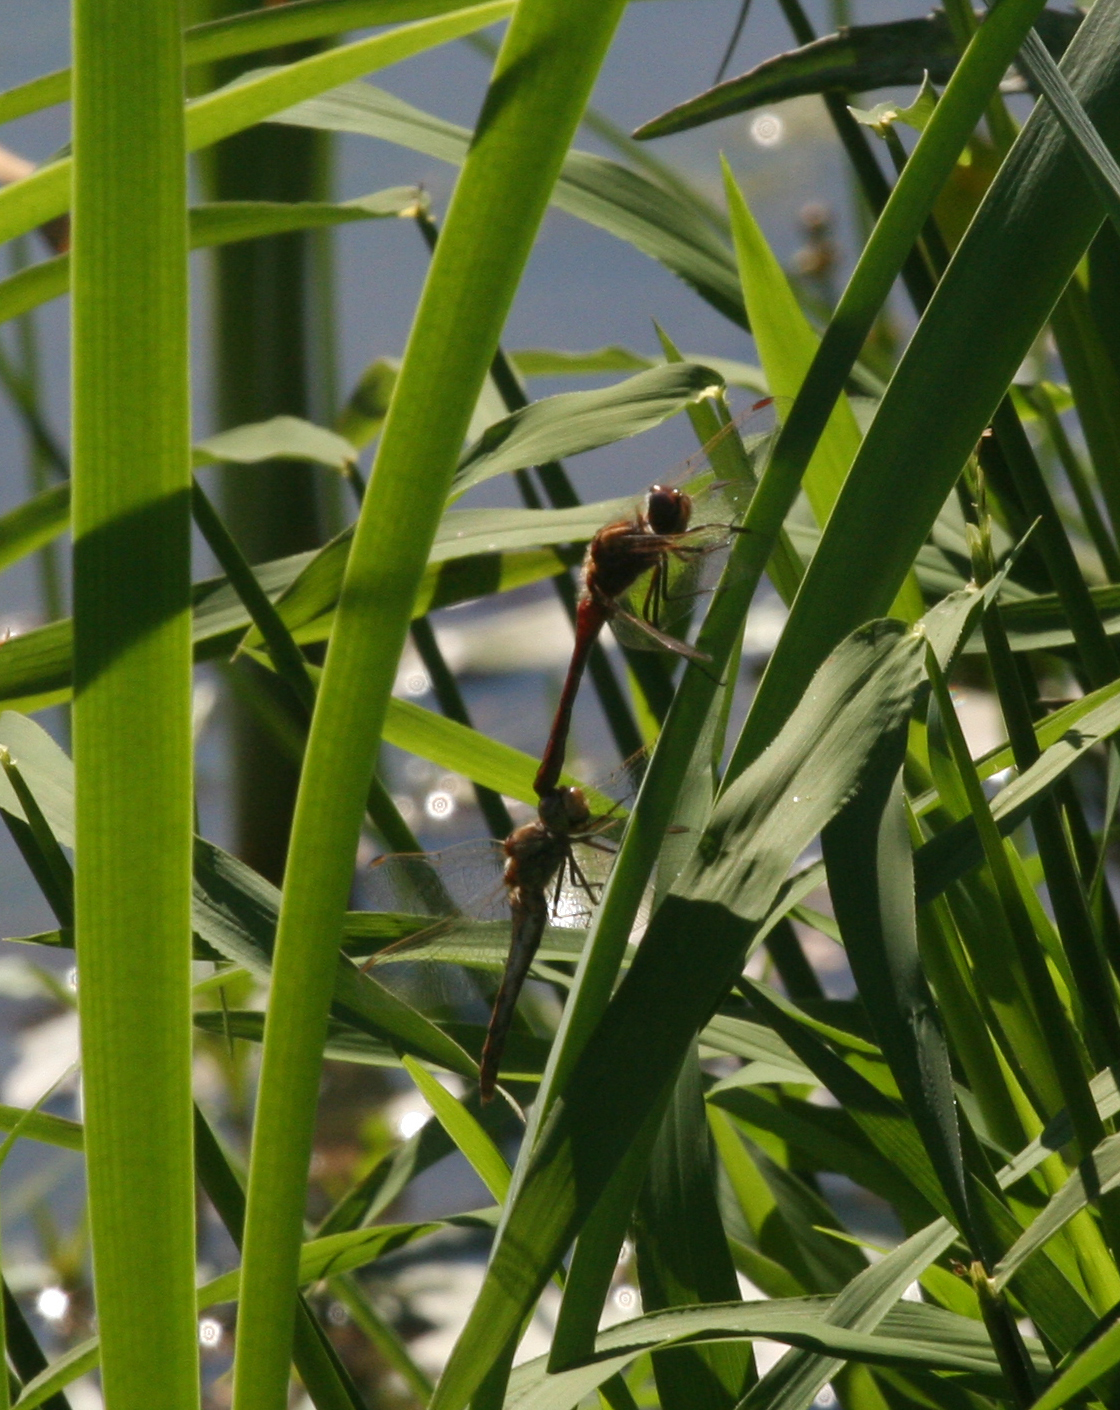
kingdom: Animalia
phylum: Arthropoda
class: Insecta
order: Odonata
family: Libellulidae
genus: Sympetrum
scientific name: Sympetrum vulgatum
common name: Vagrant darter
